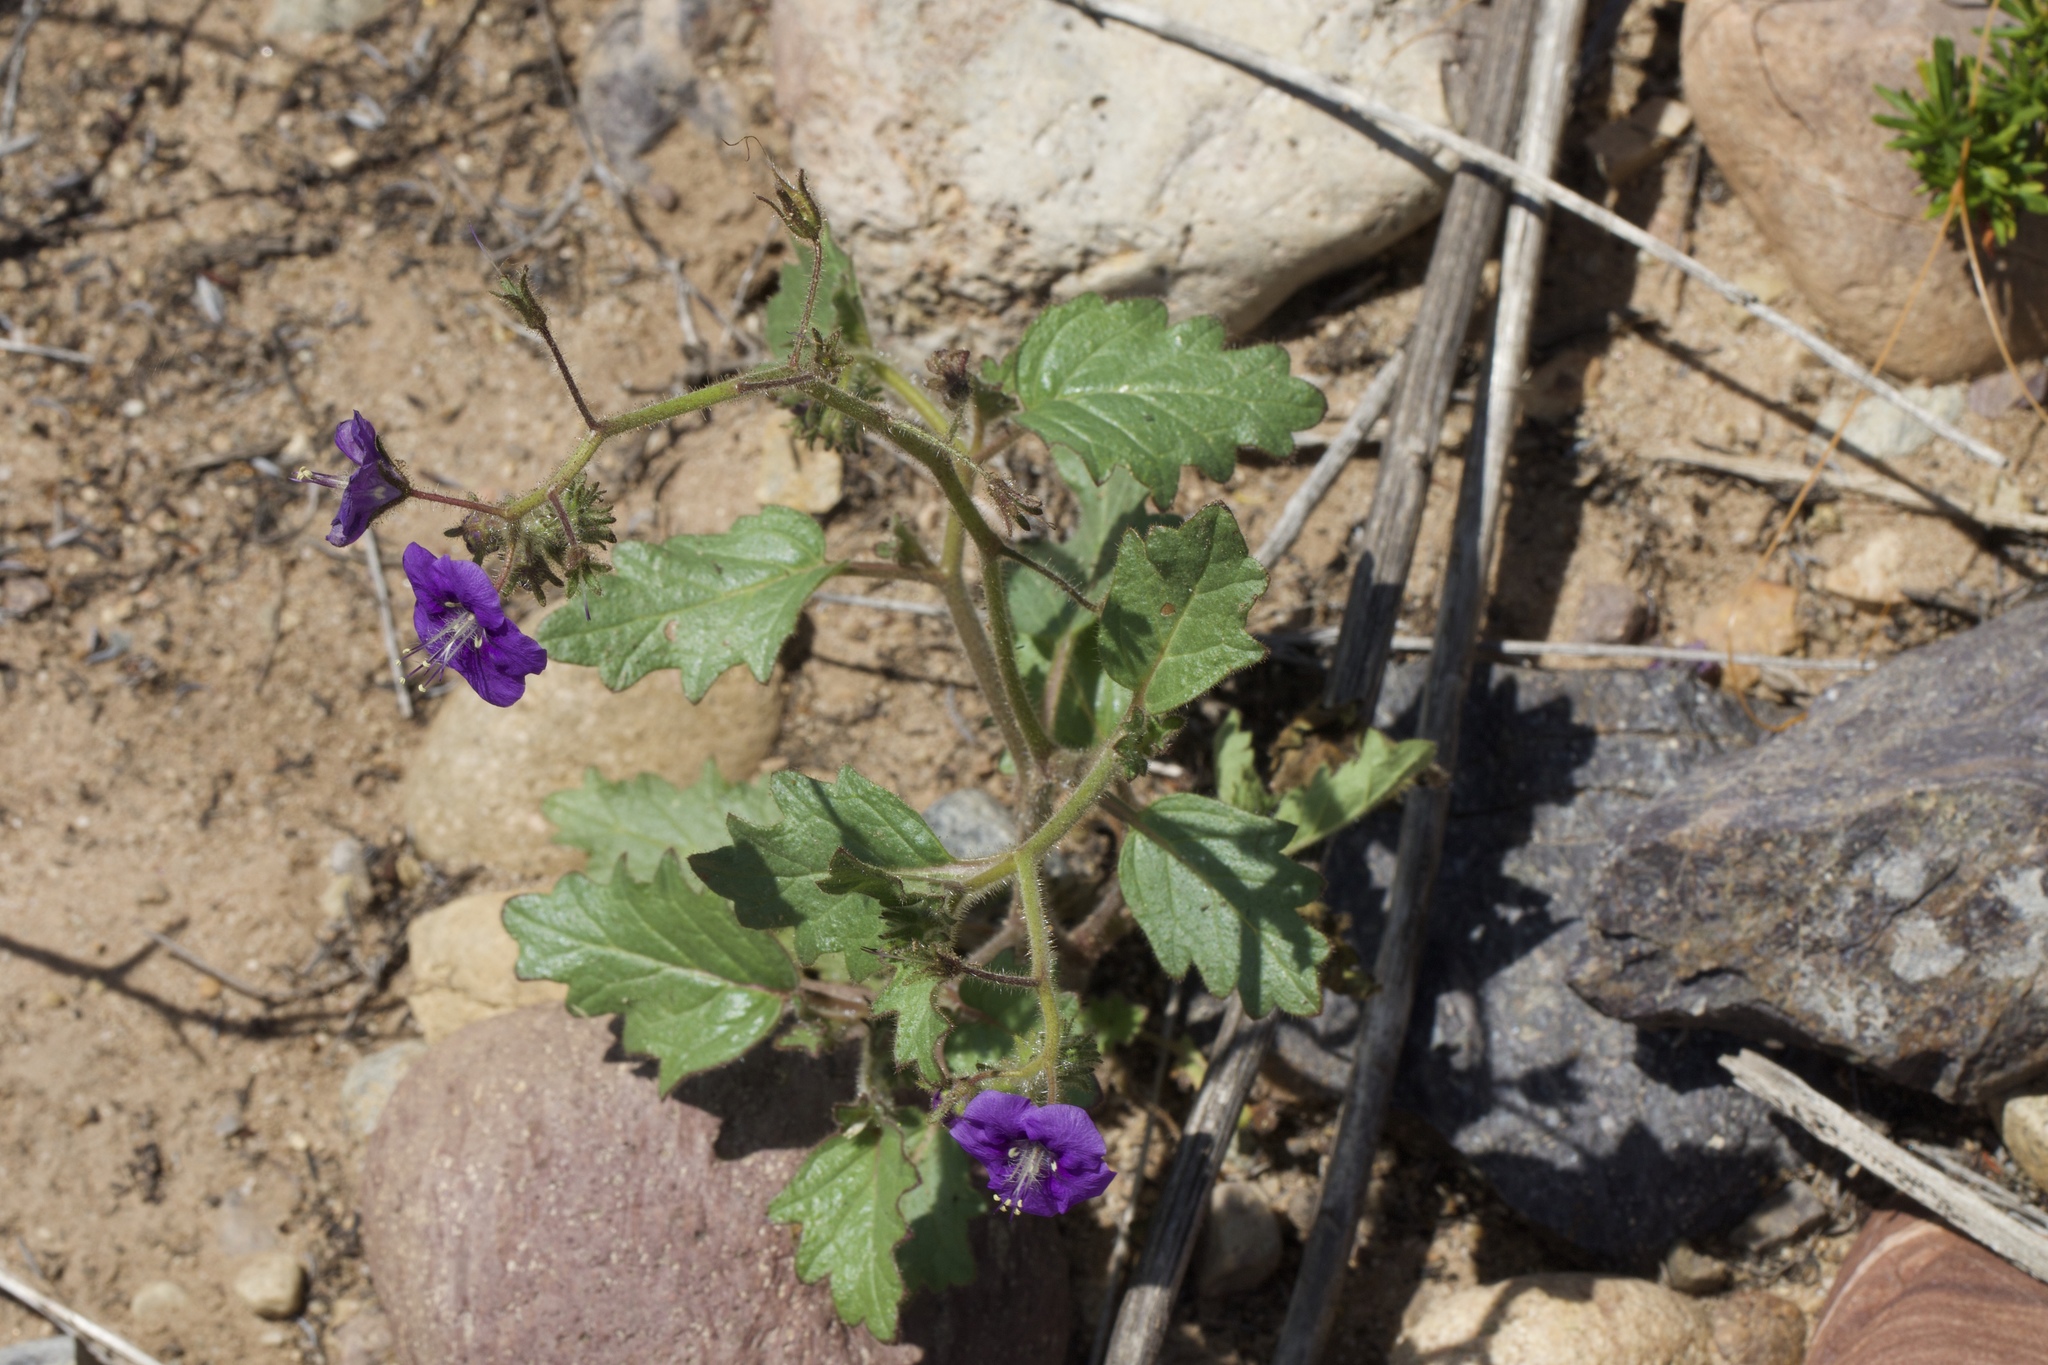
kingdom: Plantae
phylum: Tracheophyta
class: Magnoliopsida
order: Boraginales
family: Hydrophyllaceae
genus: Phacelia
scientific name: Phacelia parryi
